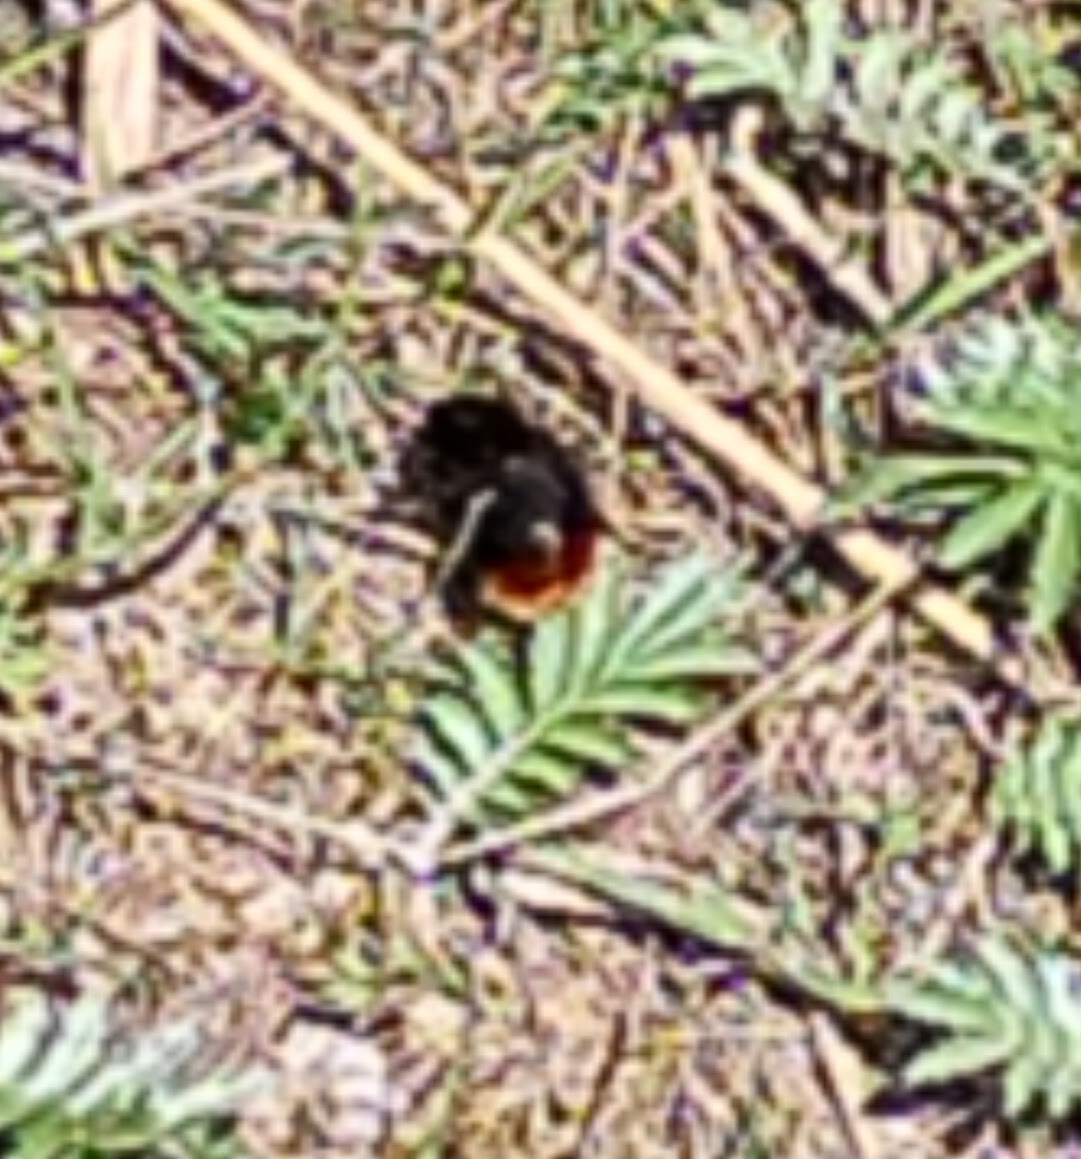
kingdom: Animalia
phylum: Arthropoda
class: Insecta
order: Hymenoptera
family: Apidae
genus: Bombus
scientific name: Bombus lapidarius
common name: Large red-tailed humble-bee
